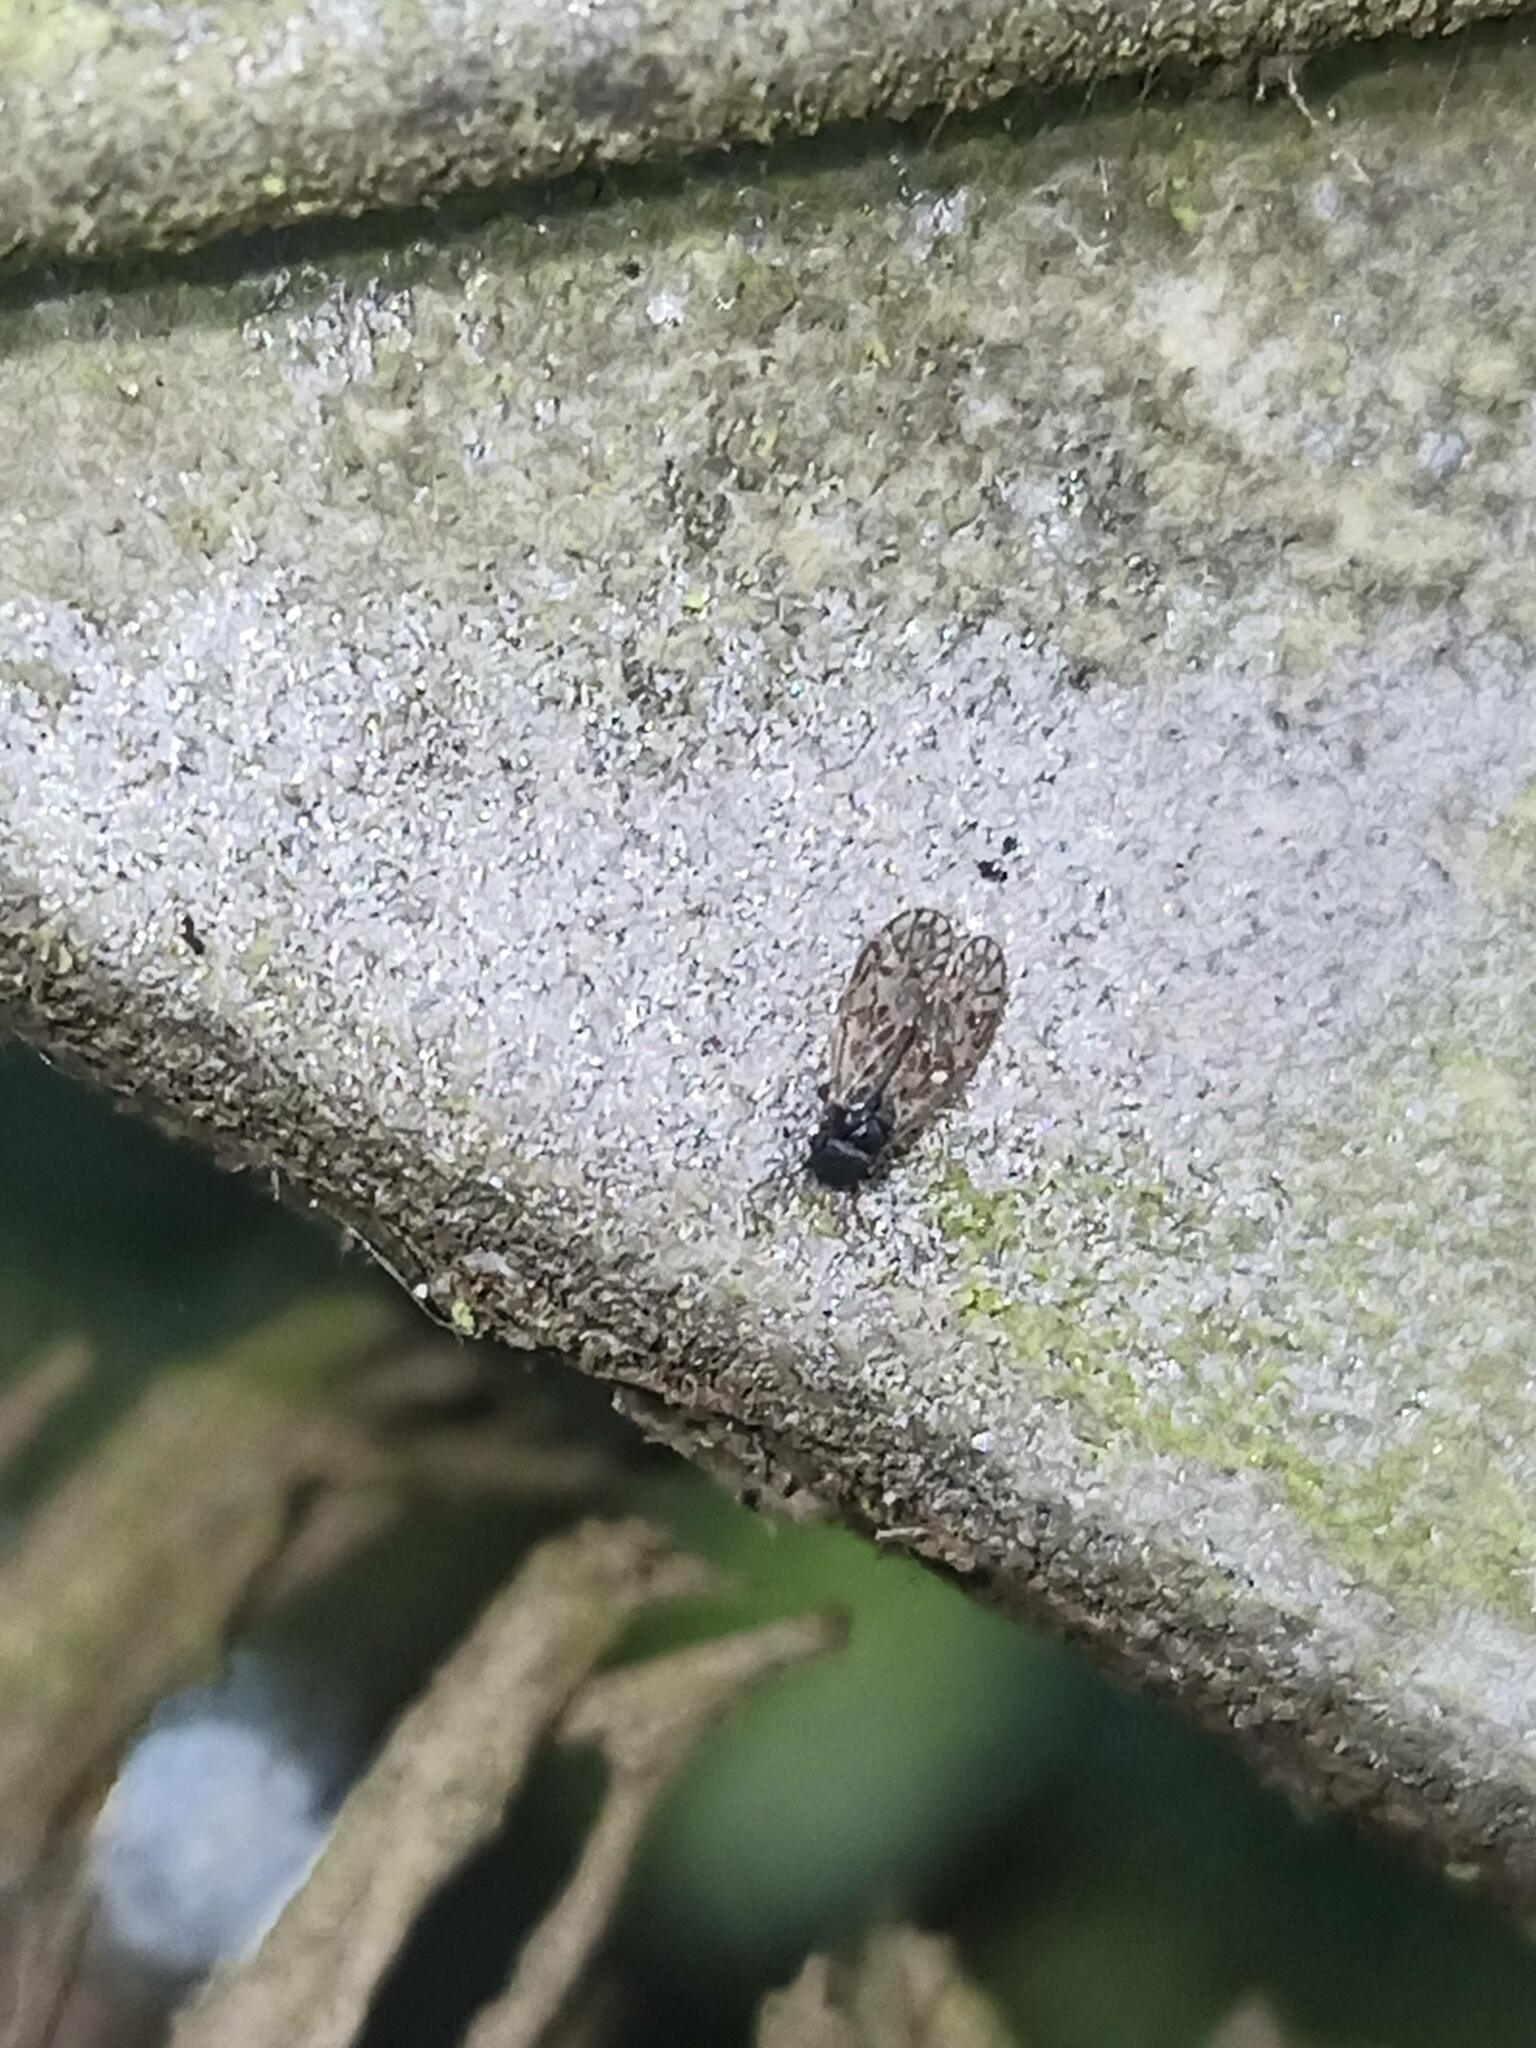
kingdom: Animalia
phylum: Arthropoda
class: Insecta
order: Psocodea
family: Philotarsidae
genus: Aaroniella
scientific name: Aaroniella badonneli
